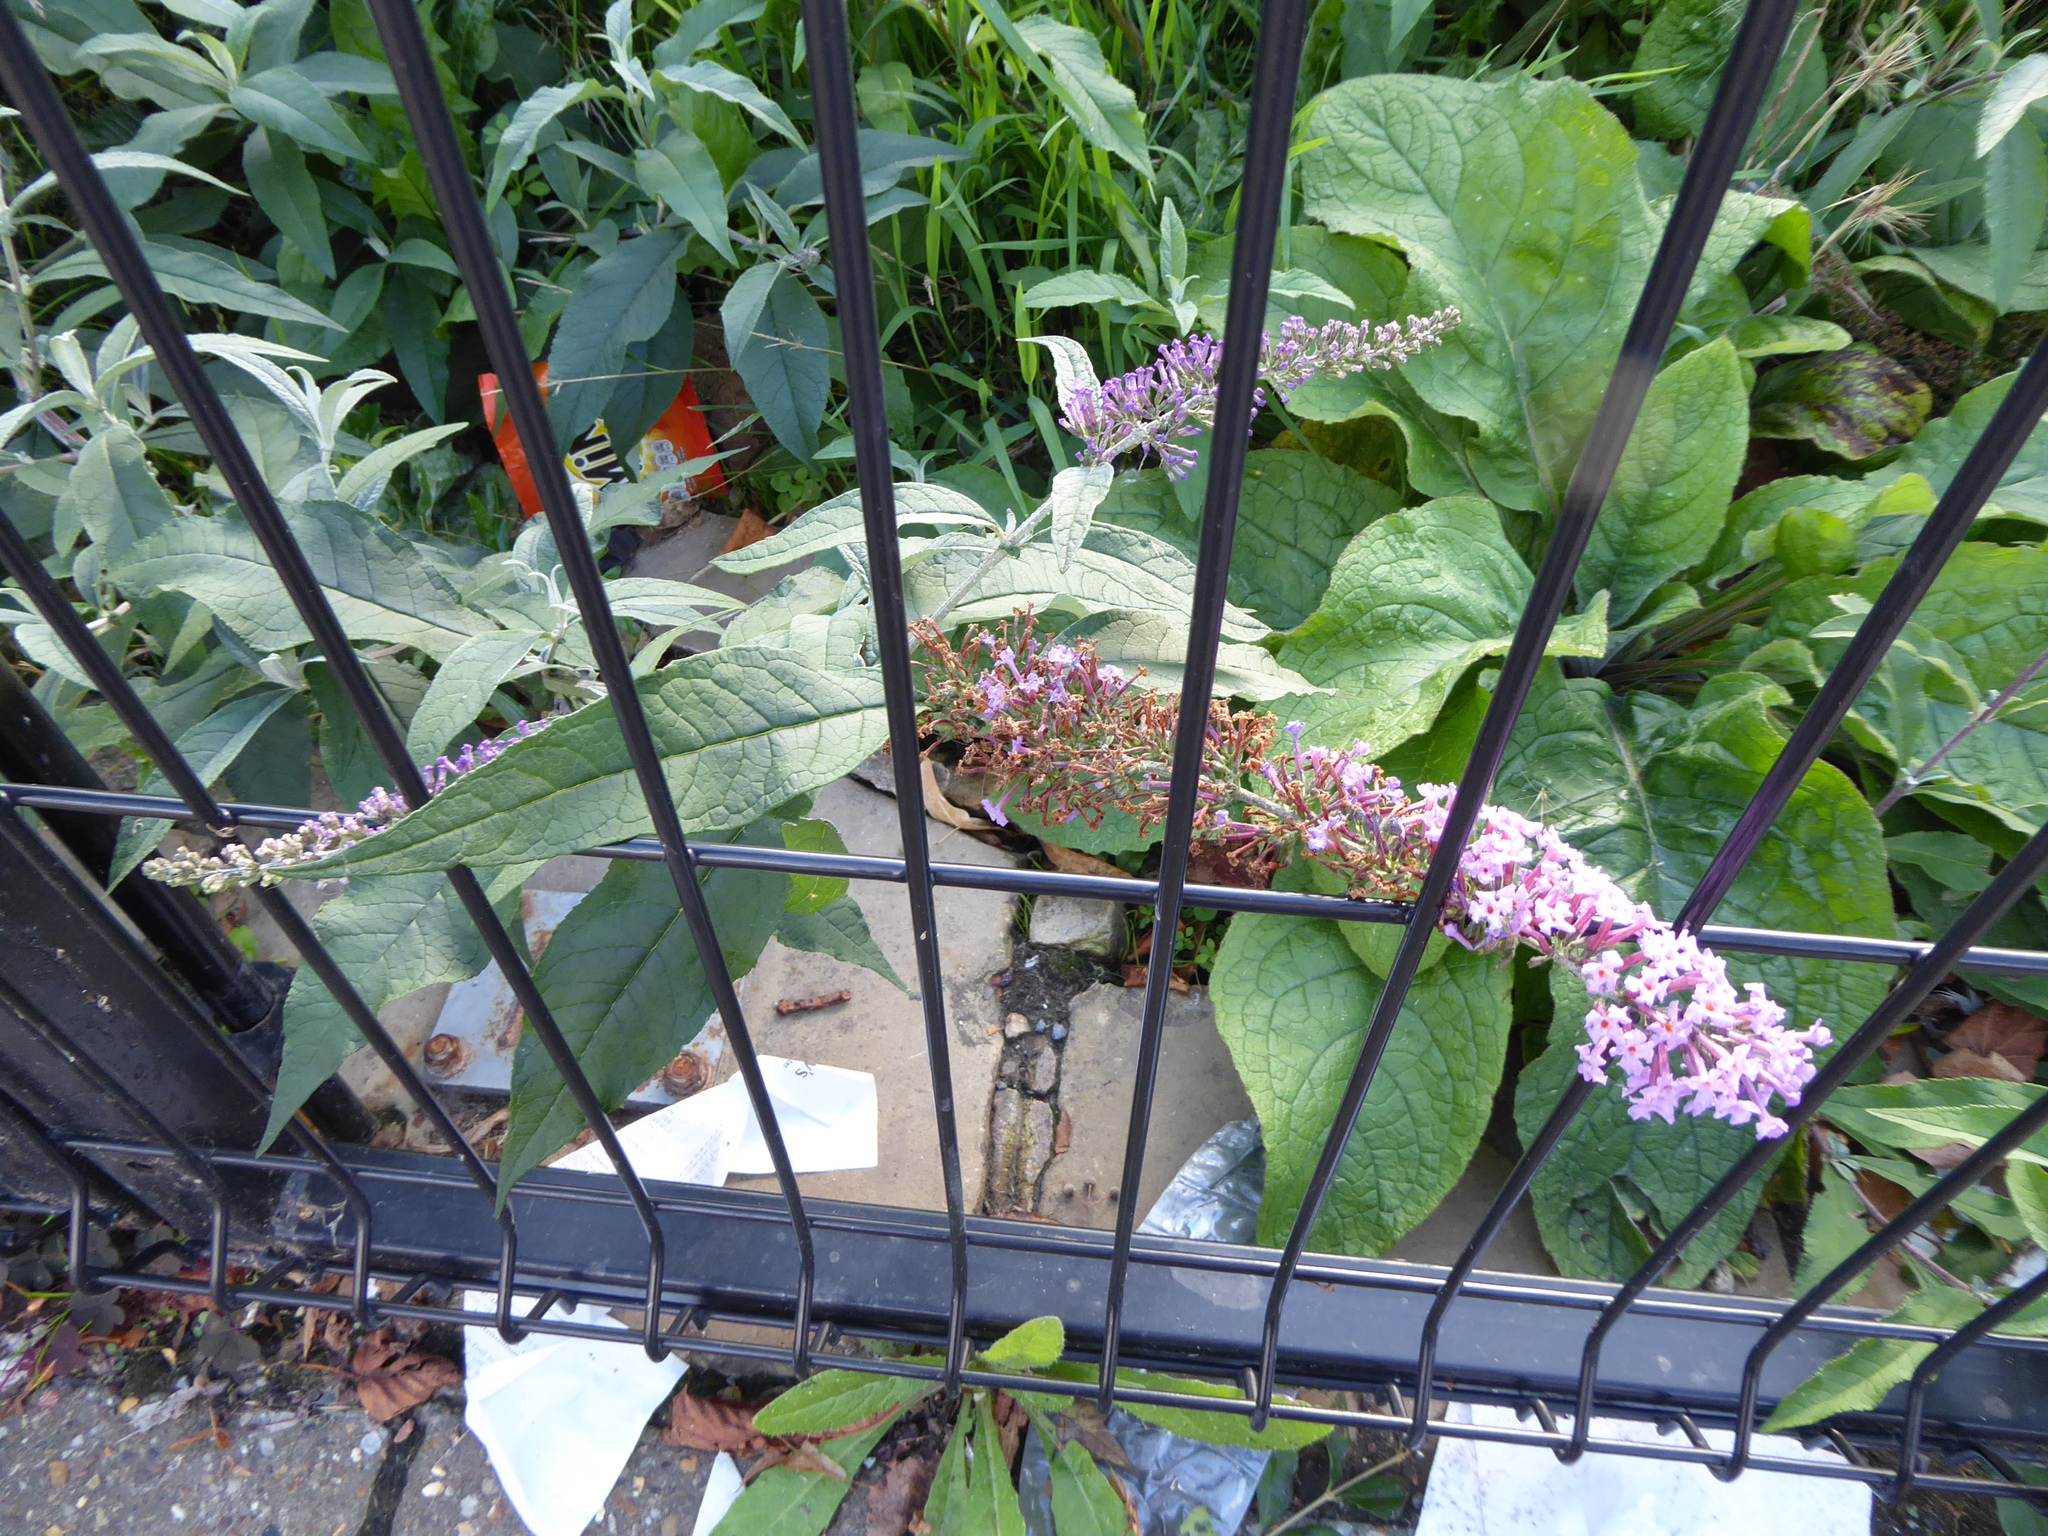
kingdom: Plantae
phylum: Tracheophyta
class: Magnoliopsida
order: Lamiales
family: Scrophulariaceae
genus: Buddleja
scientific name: Buddleja davidii
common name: Butterfly-bush
